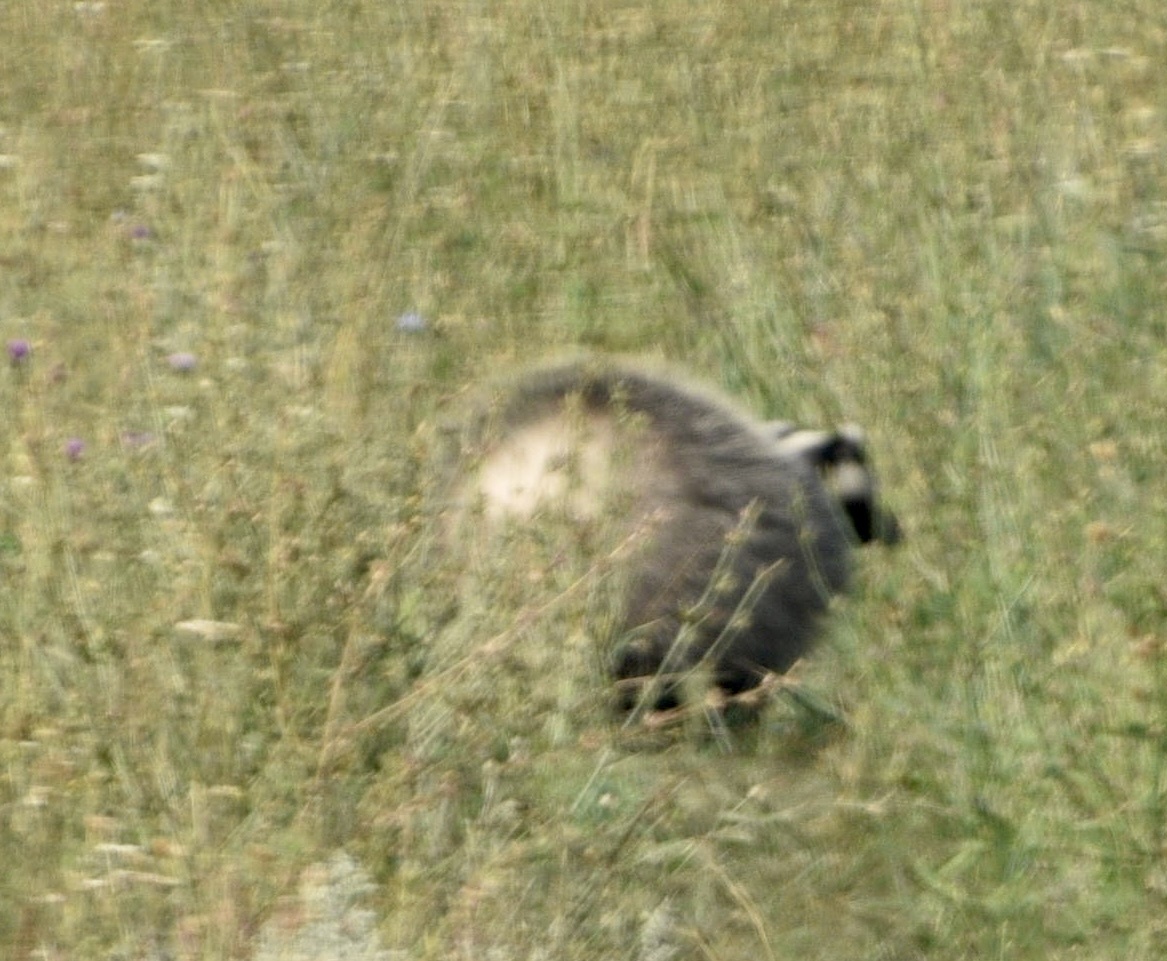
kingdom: Animalia
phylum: Chordata
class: Mammalia
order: Carnivora
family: Mustelidae
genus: Meles
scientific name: Meles meles
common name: Eurasian badger
